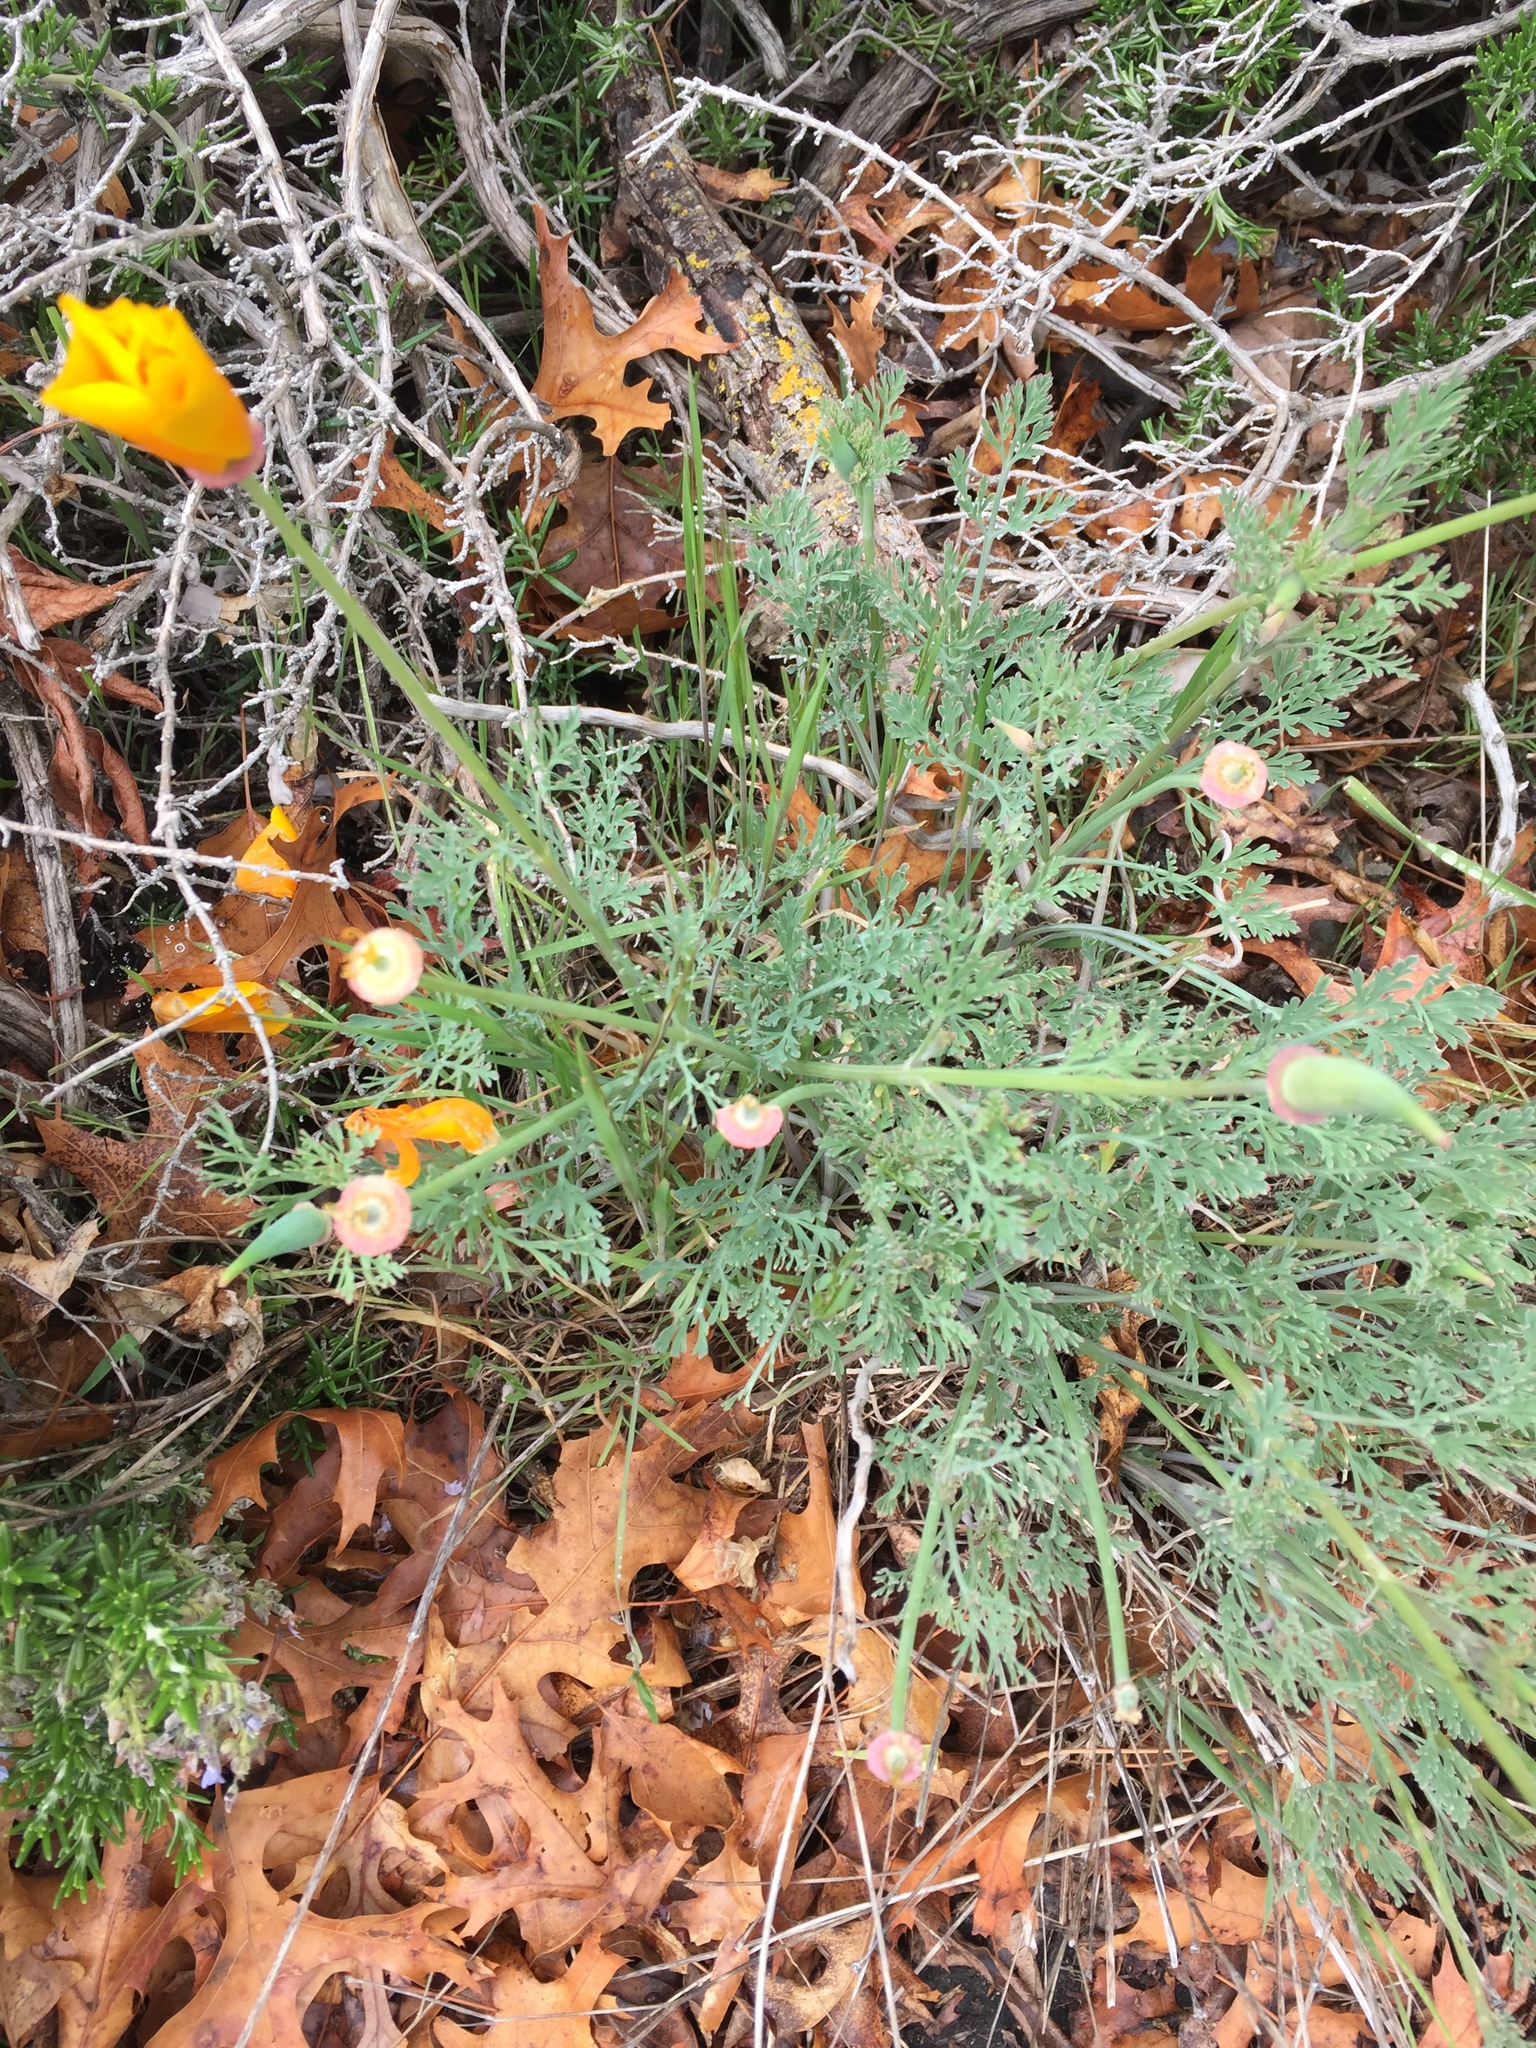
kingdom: Plantae
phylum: Tracheophyta
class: Magnoliopsida
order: Ranunculales
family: Papaveraceae
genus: Eschscholzia
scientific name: Eschscholzia californica
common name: California poppy
